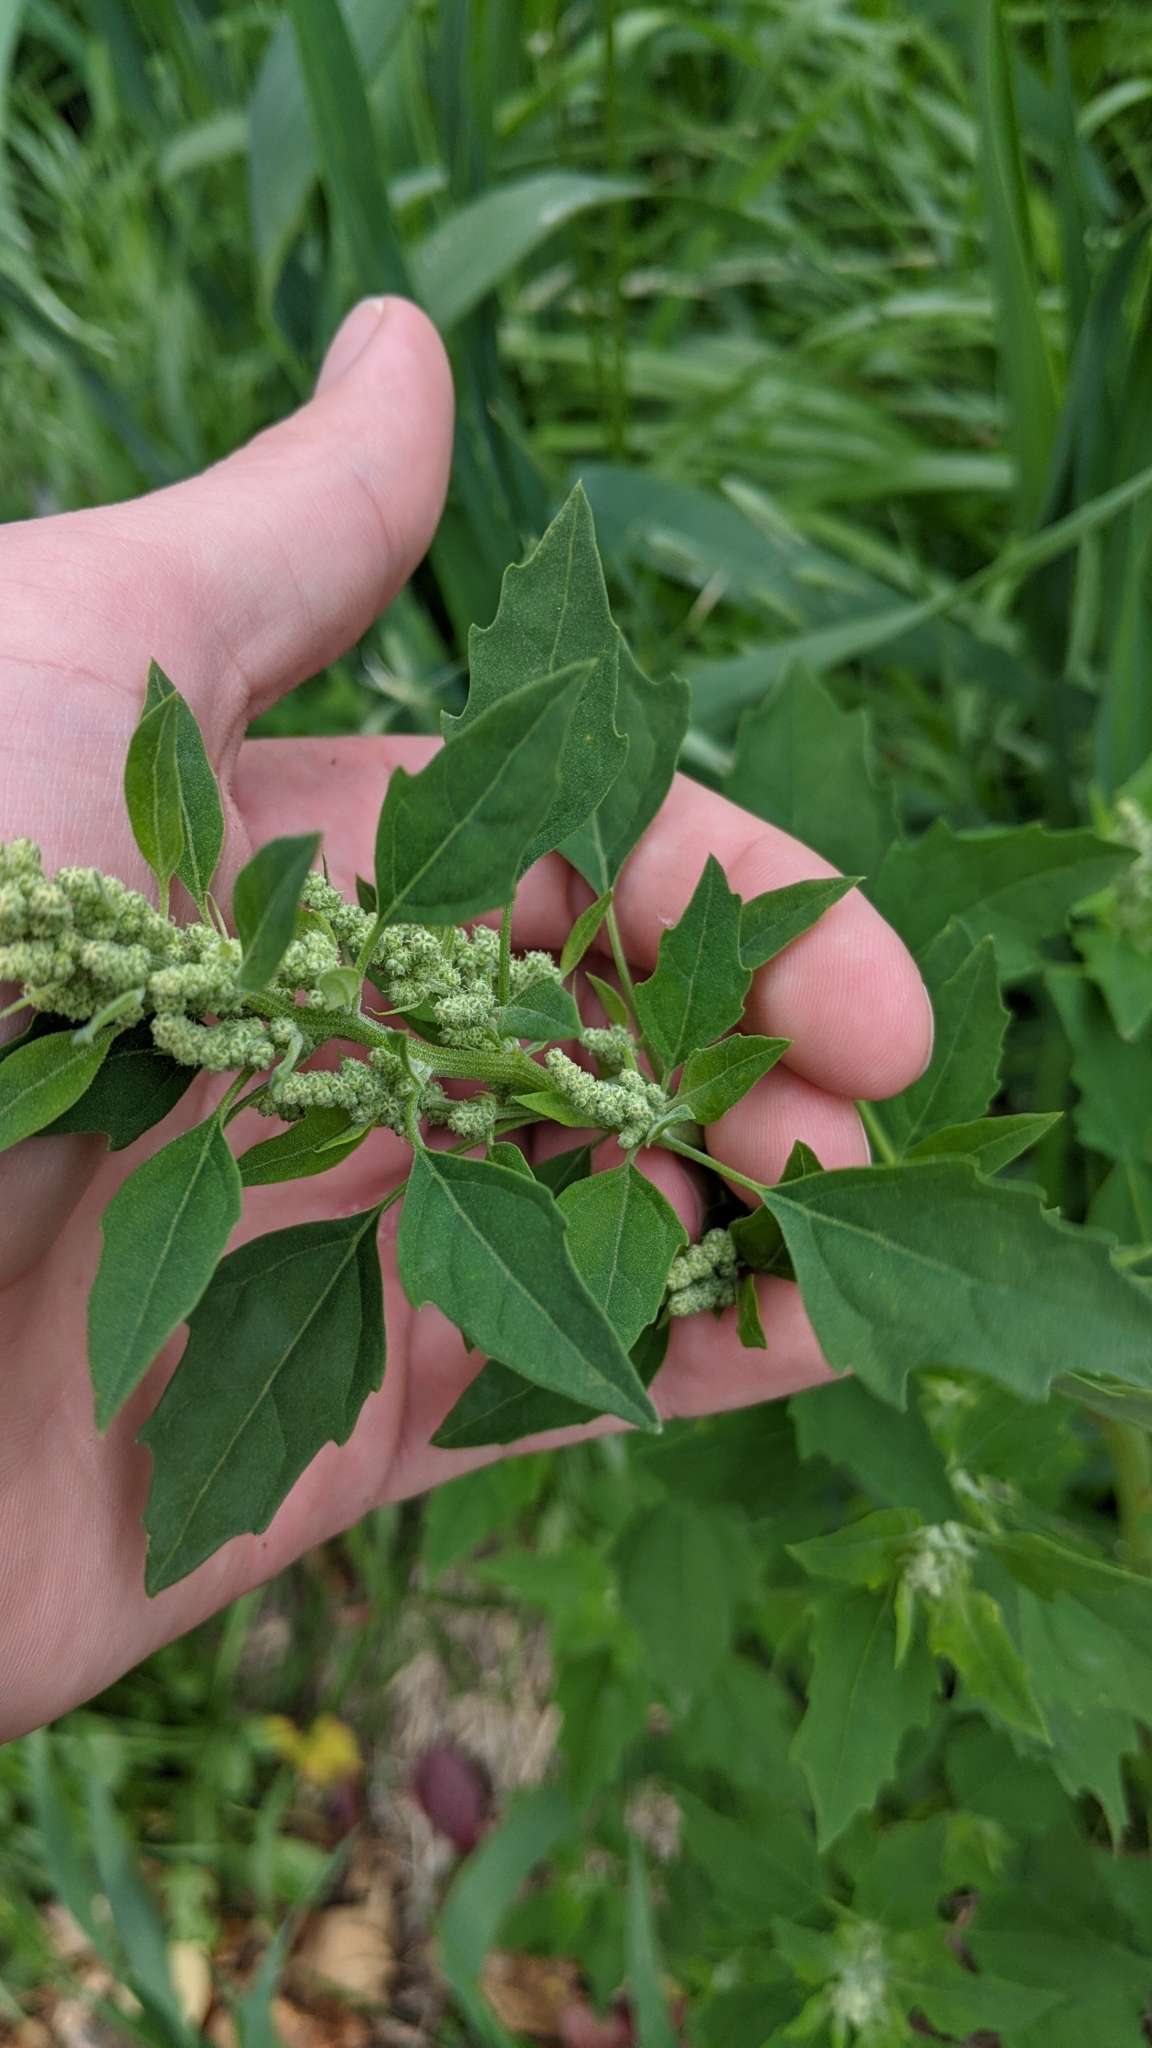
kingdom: Plantae
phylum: Tracheophyta
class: Magnoliopsida
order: Caryophyllales
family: Amaranthaceae
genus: Chenopodium
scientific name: Chenopodium album
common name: Fat-hen
